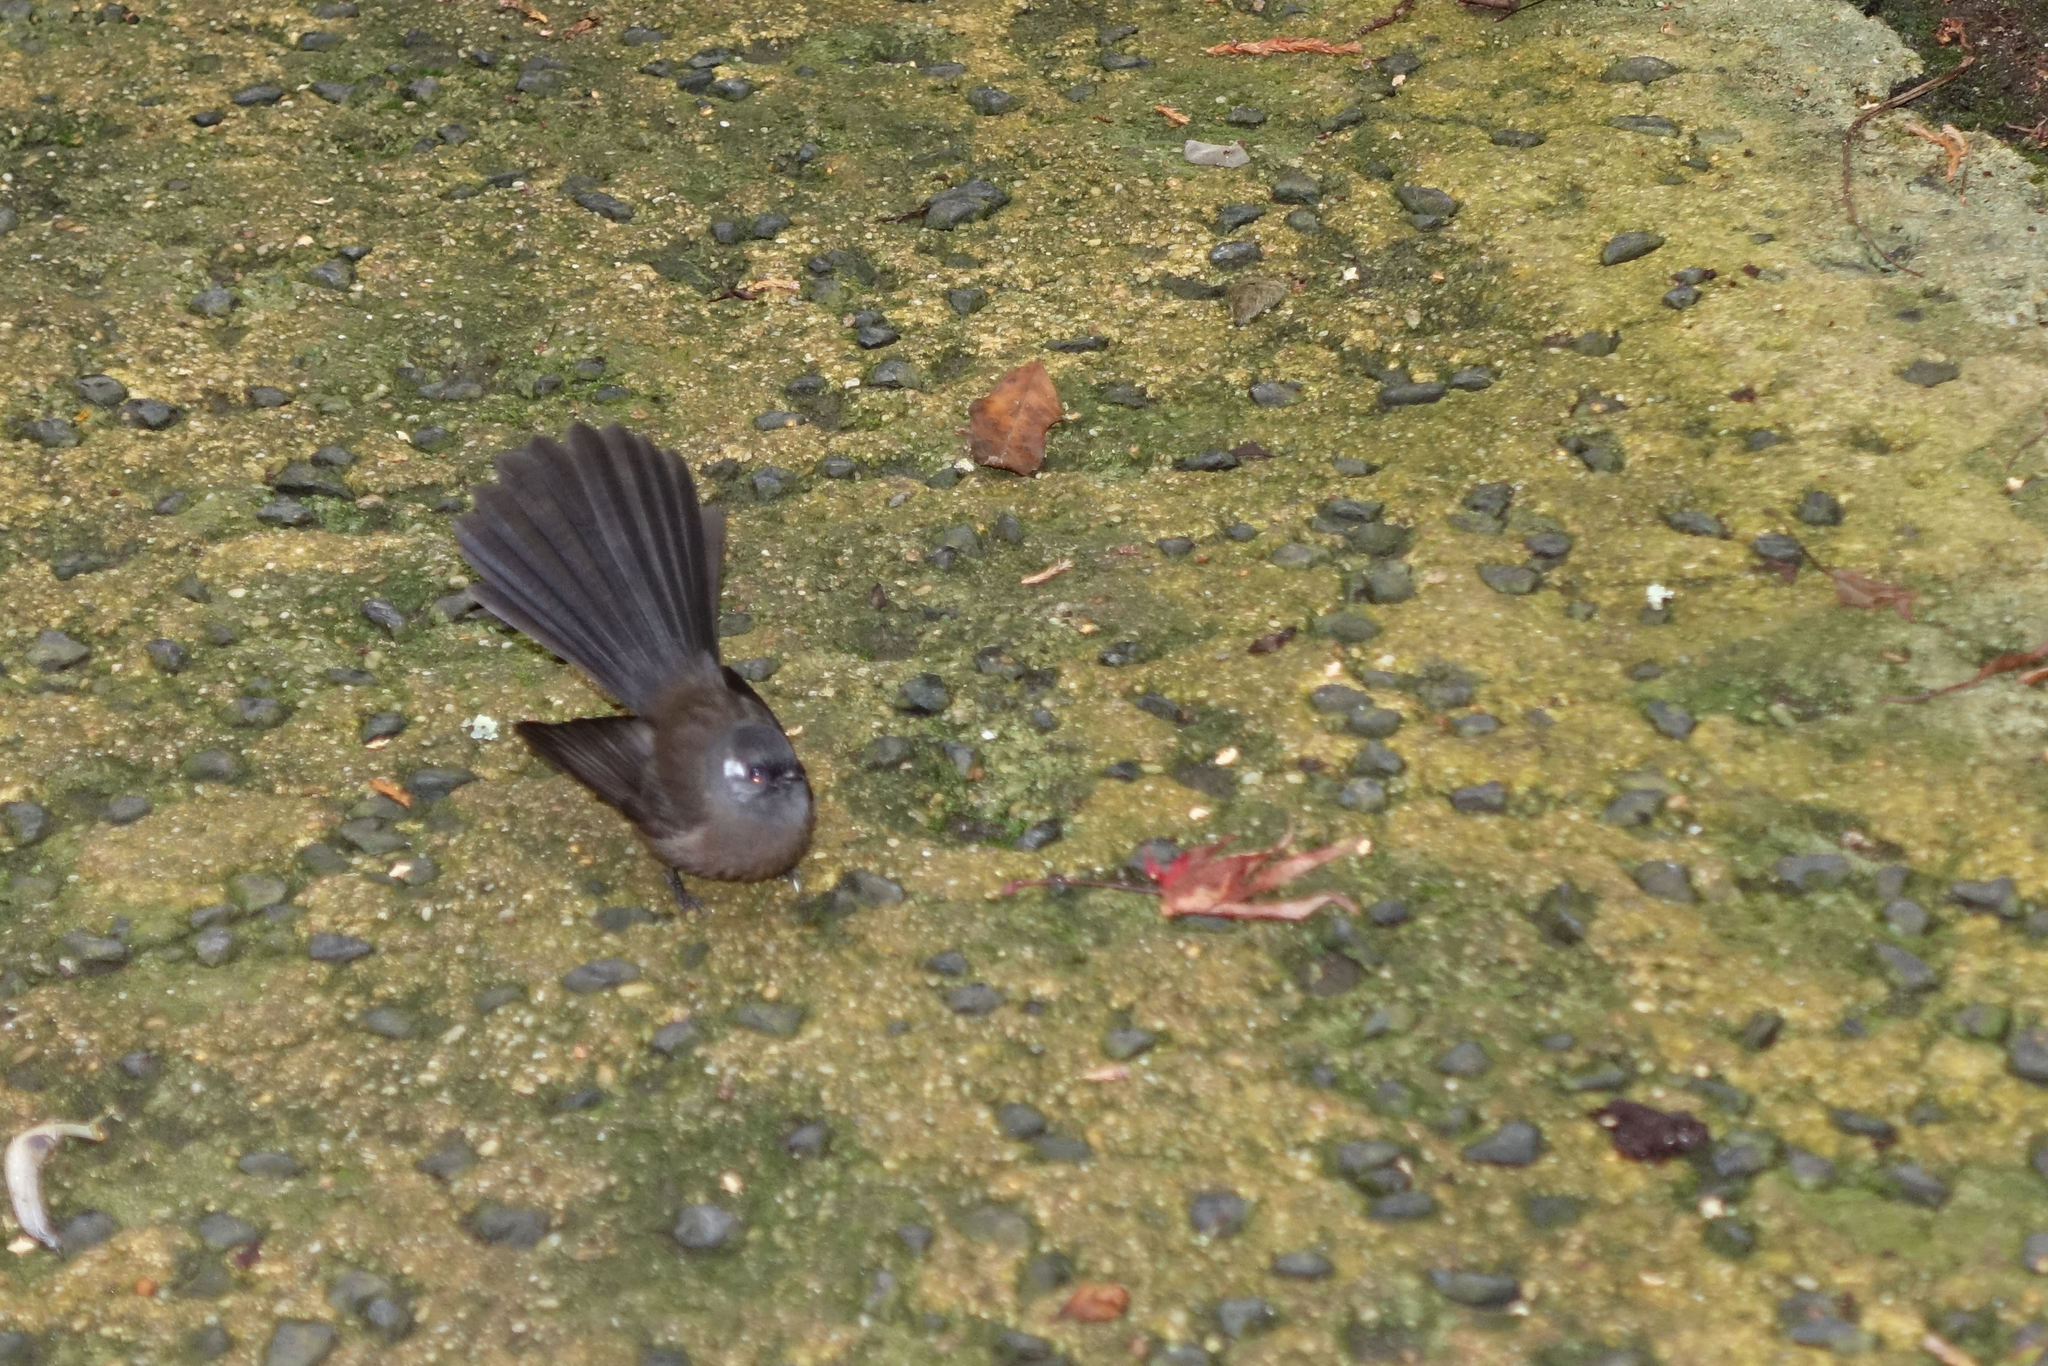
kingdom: Animalia
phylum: Chordata
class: Aves
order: Passeriformes
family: Rhipiduridae
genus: Rhipidura
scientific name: Rhipidura fuliginosa
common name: New zealand fantail
